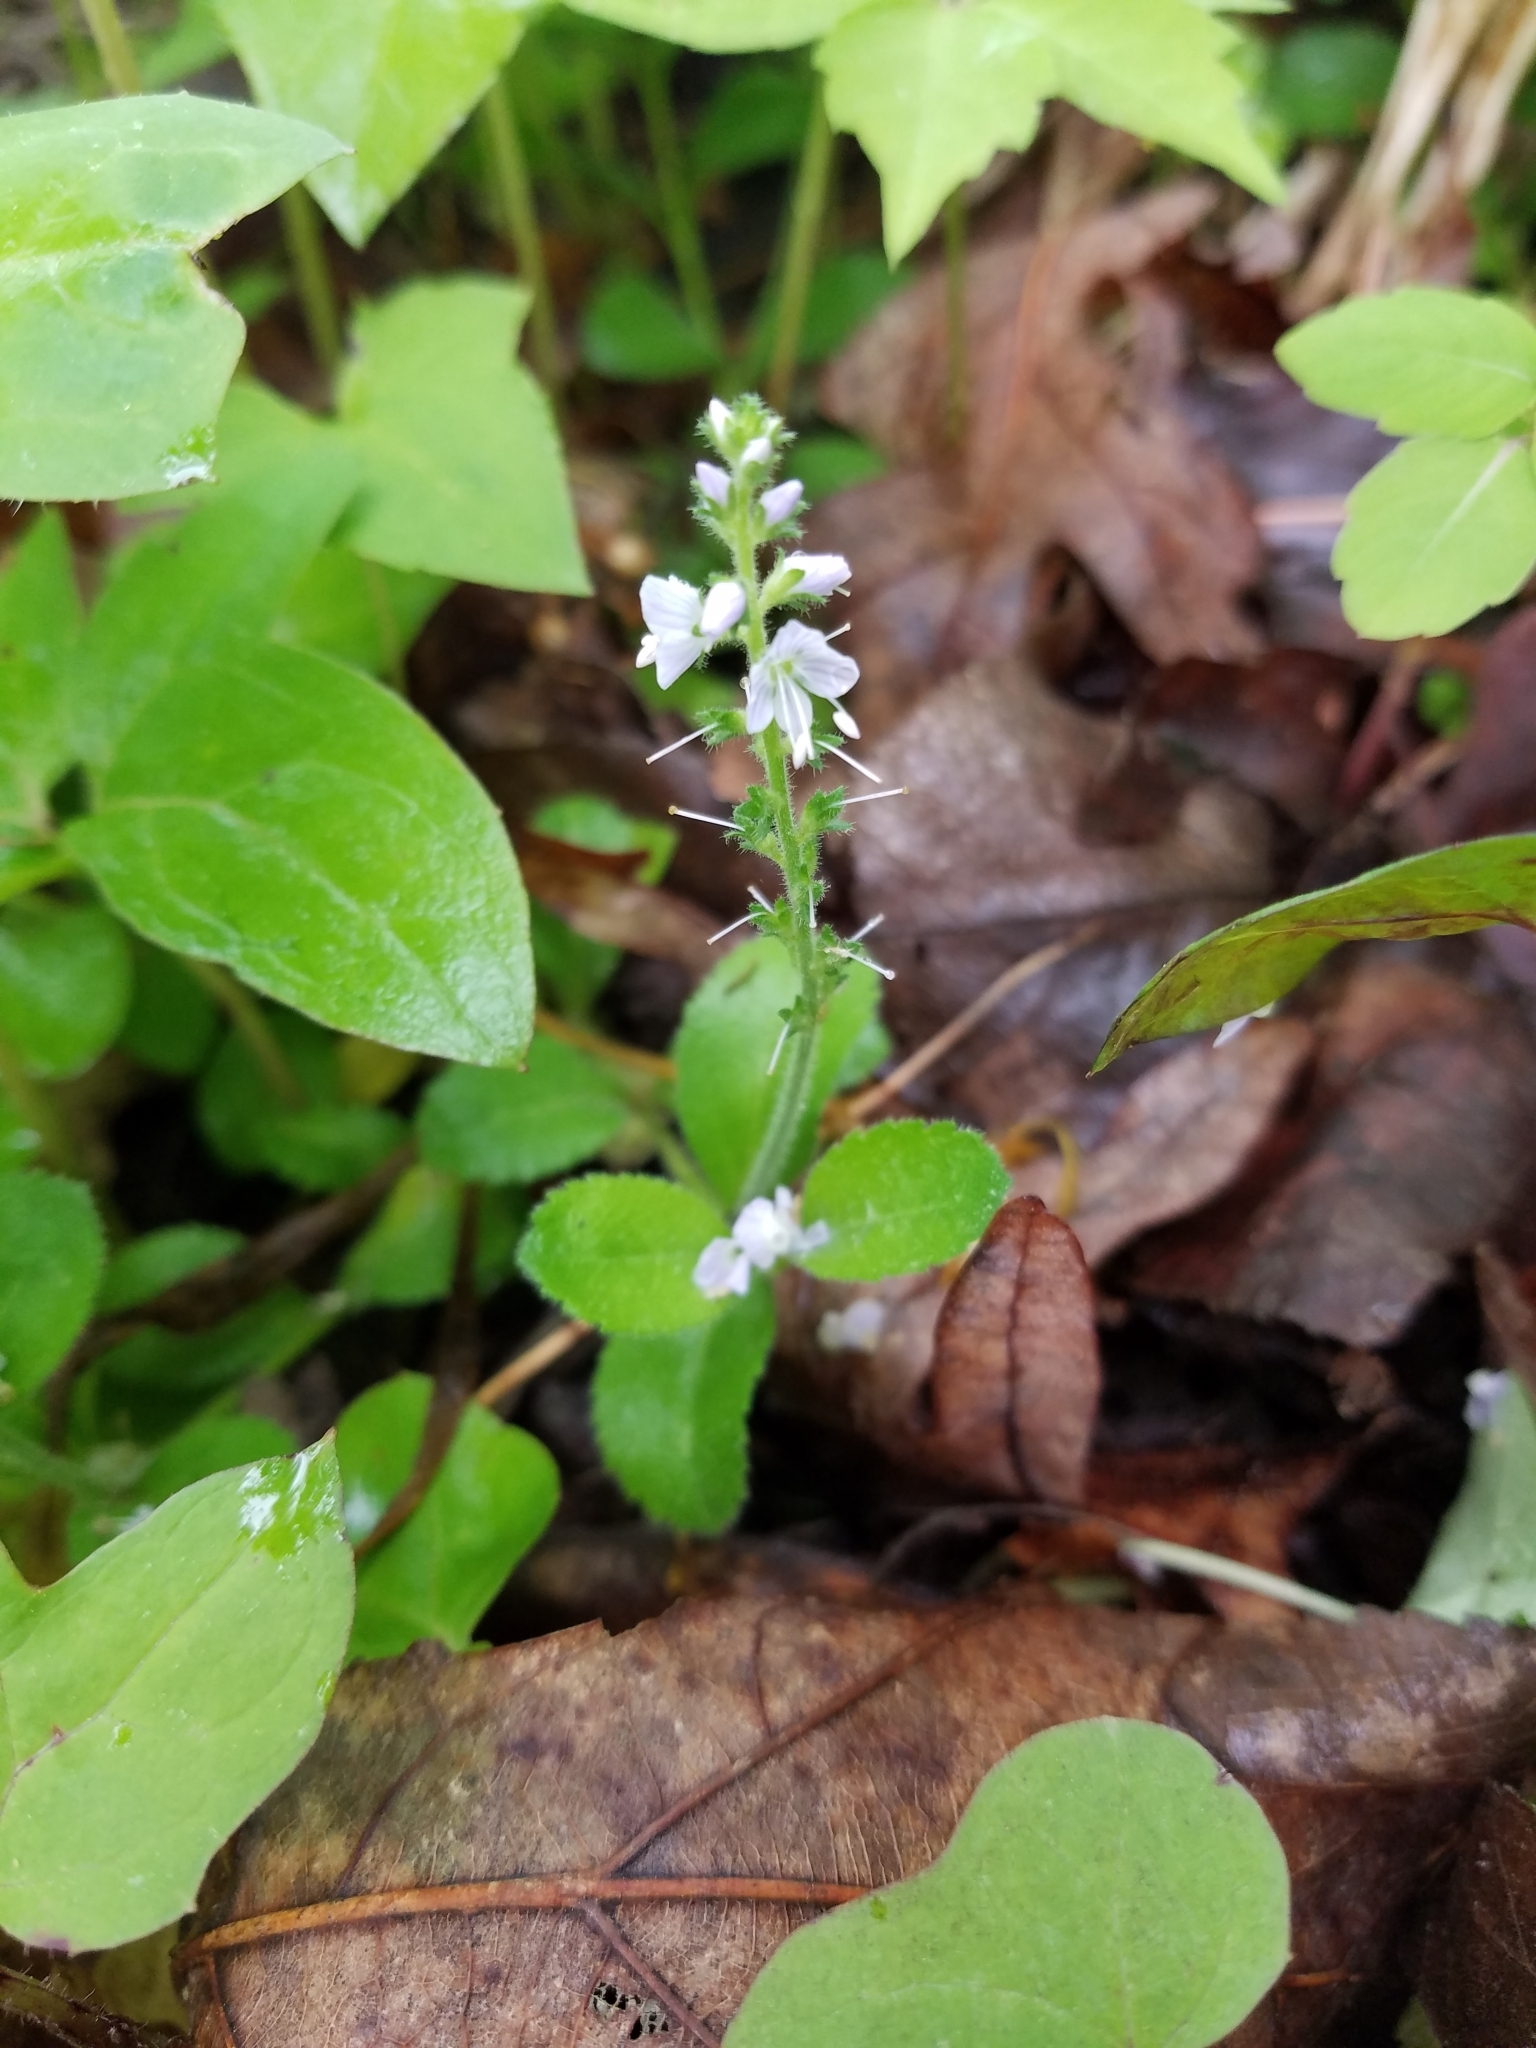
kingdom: Plantae
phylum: Tracheophyta
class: Magnoliopsida
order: Lamiales
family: Plantaginaceae
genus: Veronica
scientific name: Veronica officinalis
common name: Common speedwell
